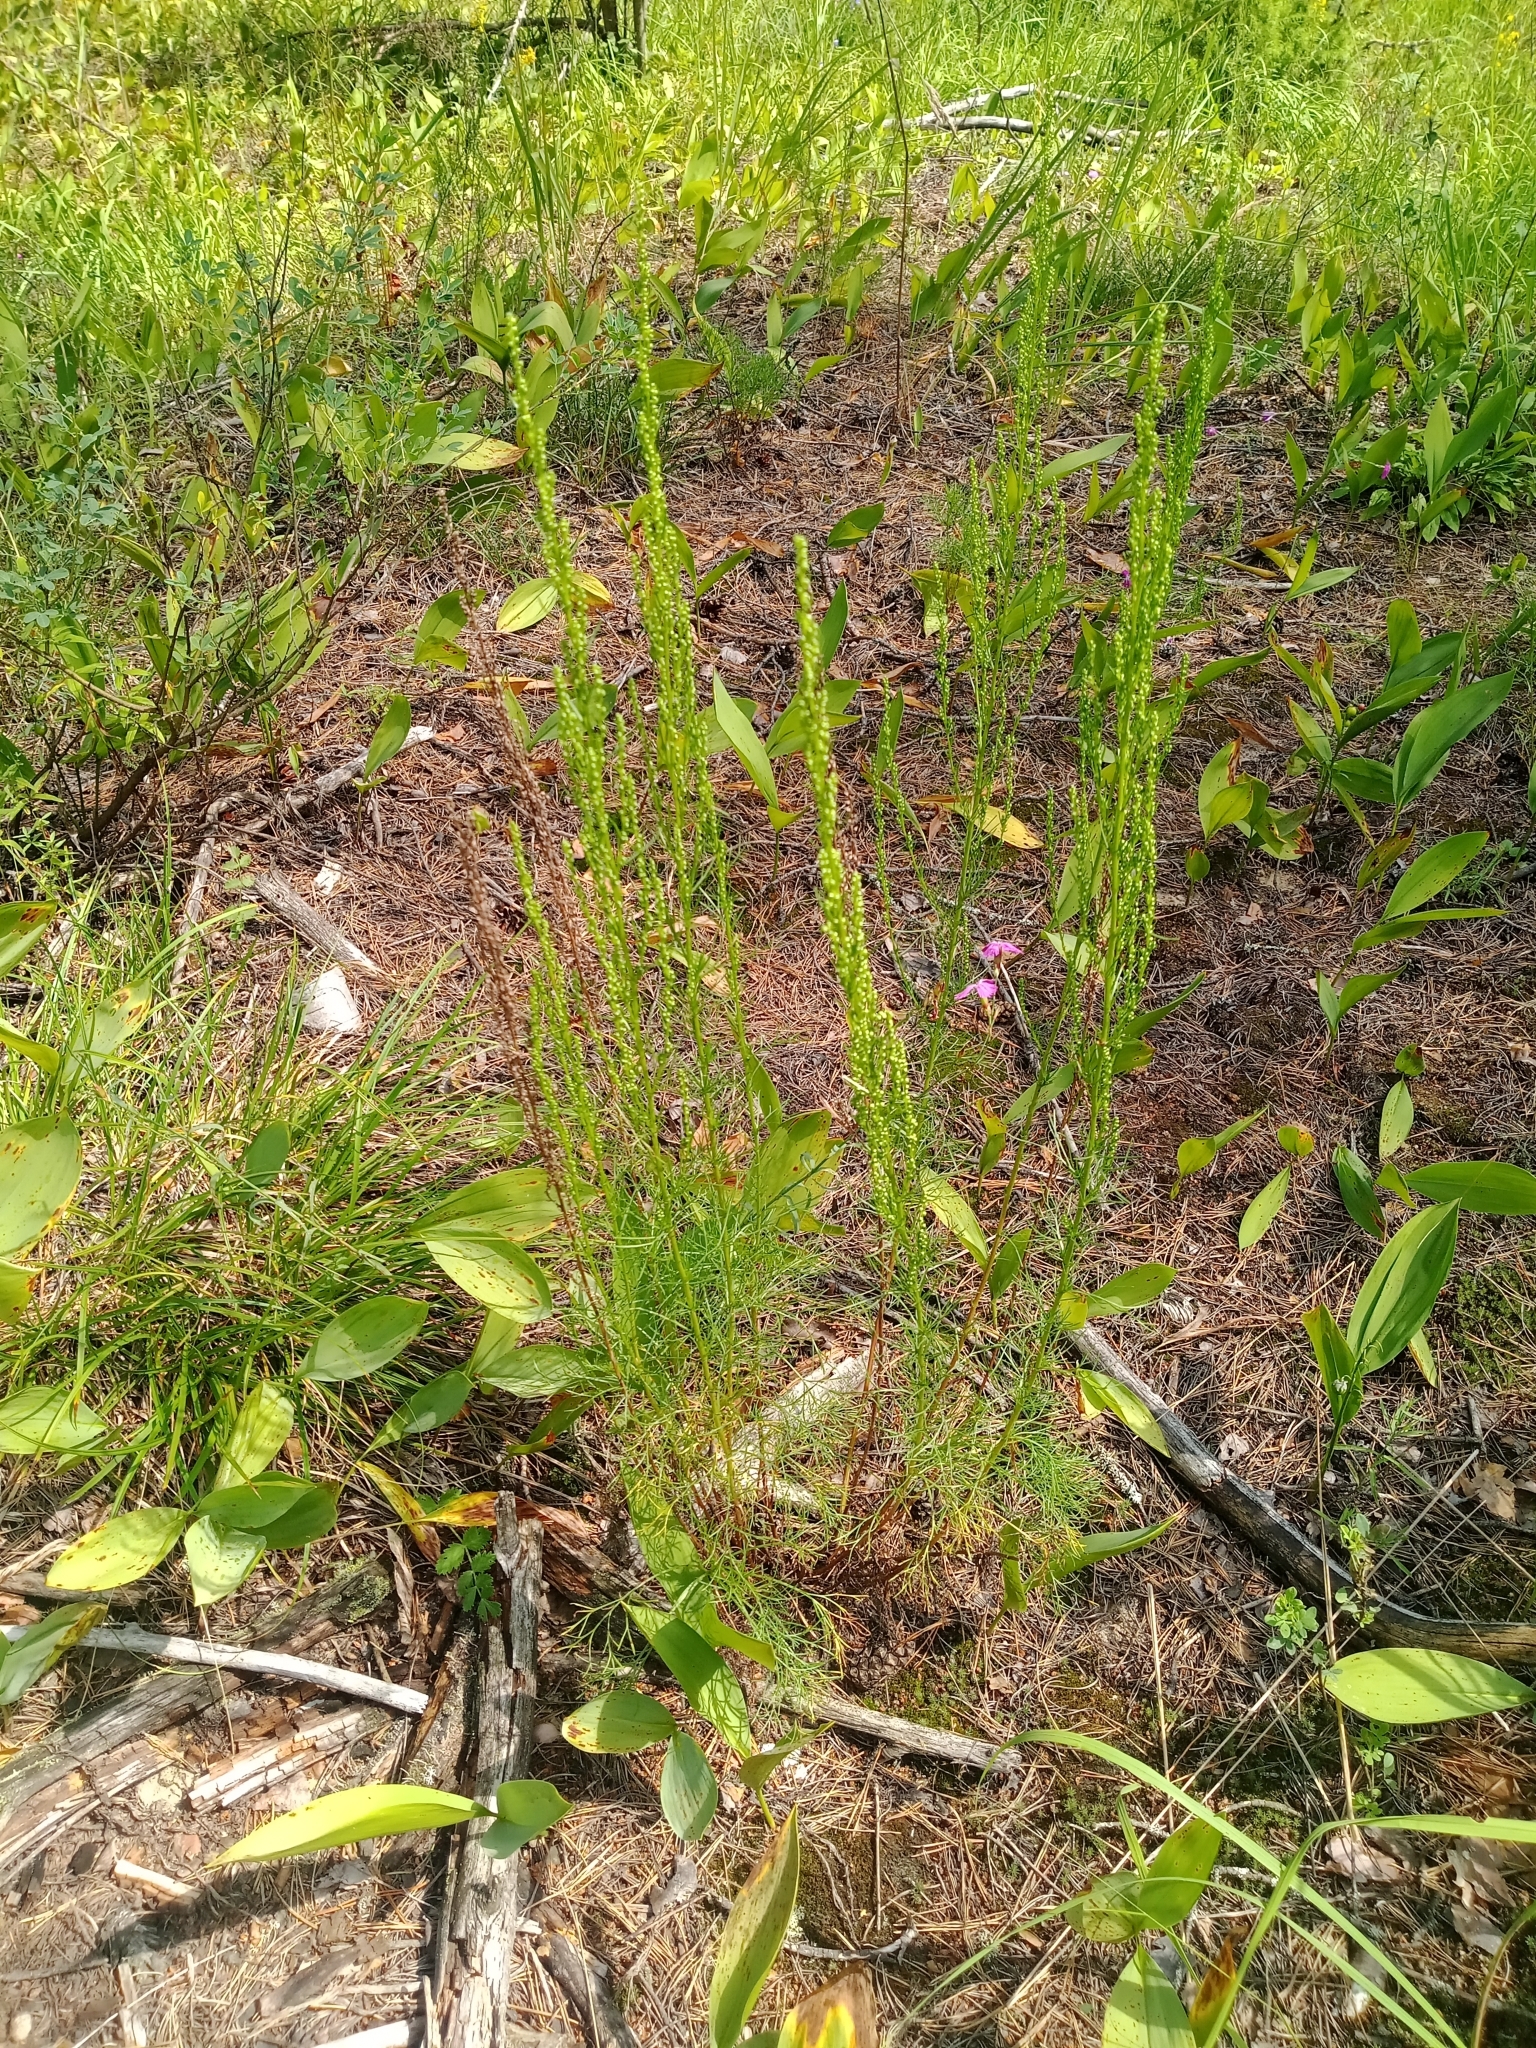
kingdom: Plantae
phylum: Tracheophyta
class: Magnoliopsida
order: Asterales
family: Asteraceae
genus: Artemisia
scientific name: Artemisia campestris
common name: Field wormwood
